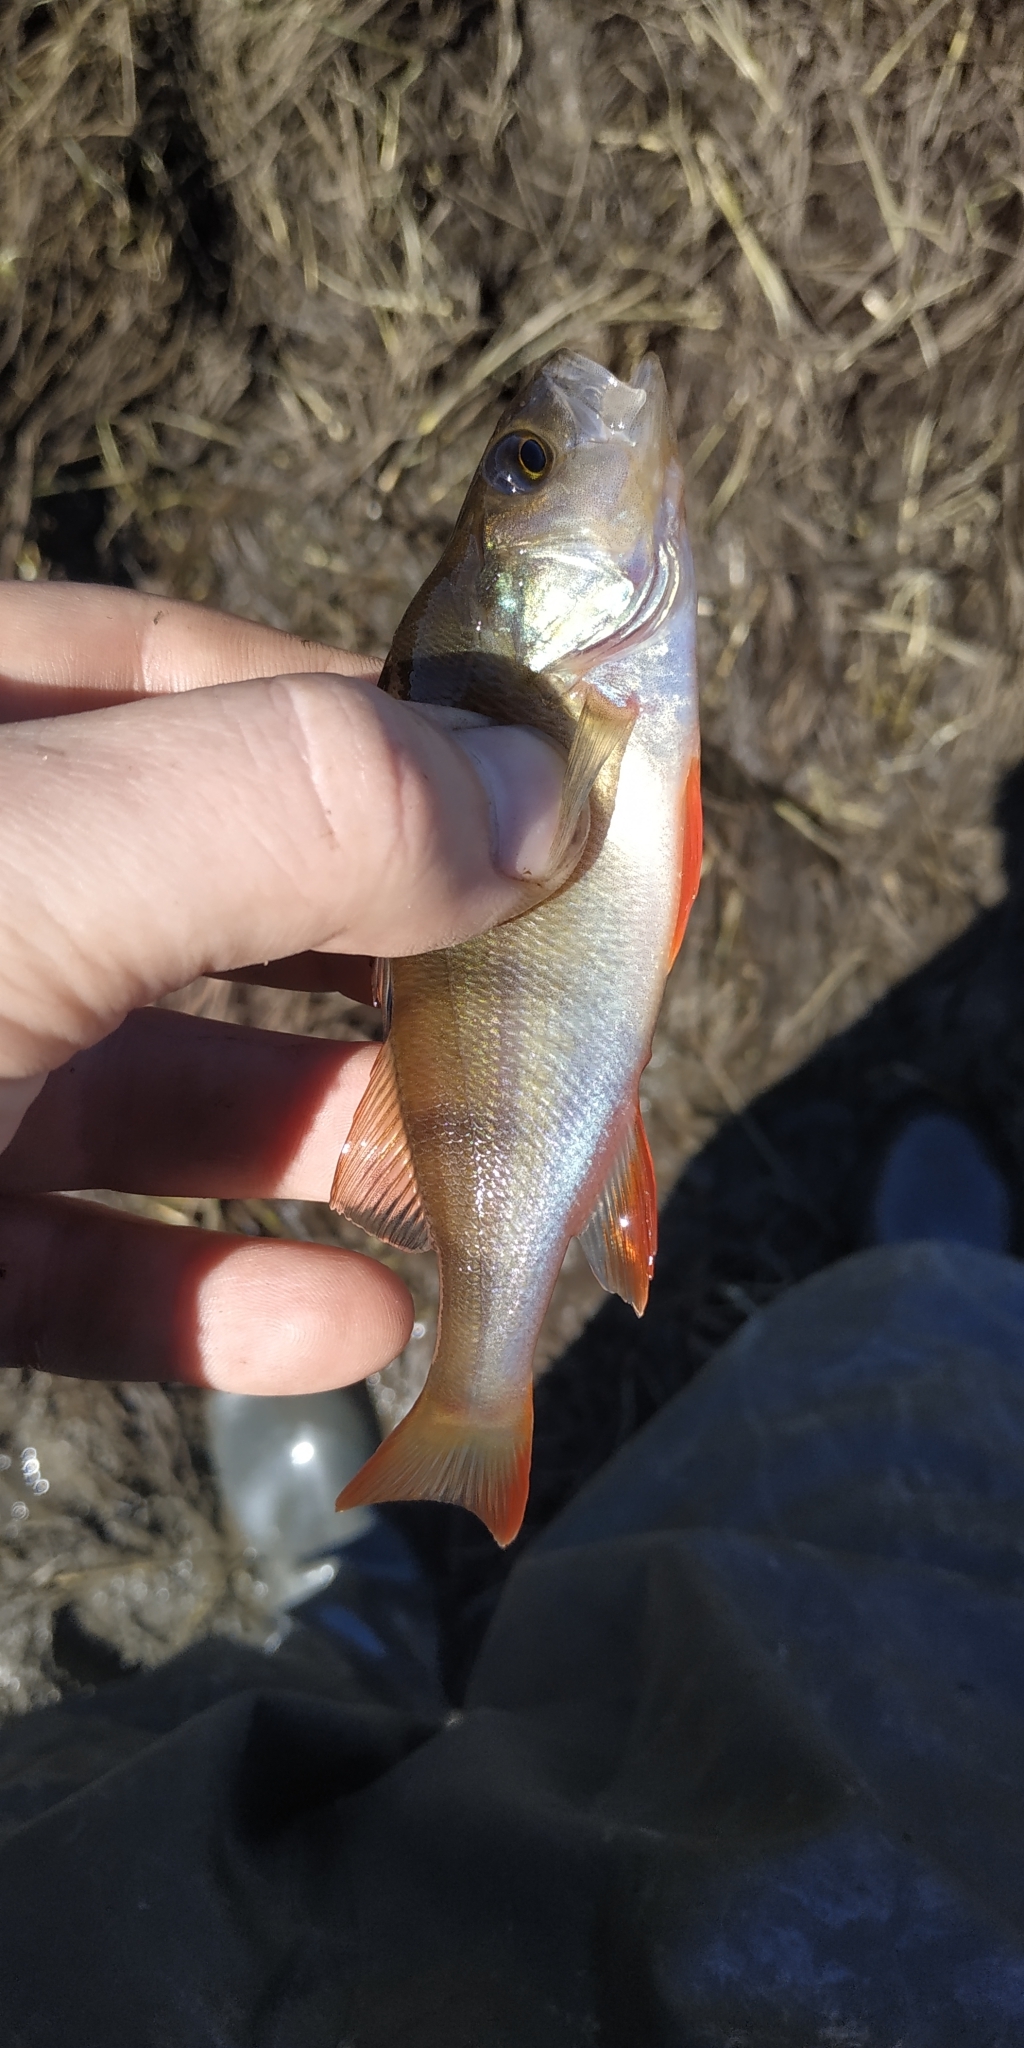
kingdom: Animalia
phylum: Chordata
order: Perciformes
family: Percidae
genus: Perca
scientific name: Perca fluviatilis
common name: Perch
